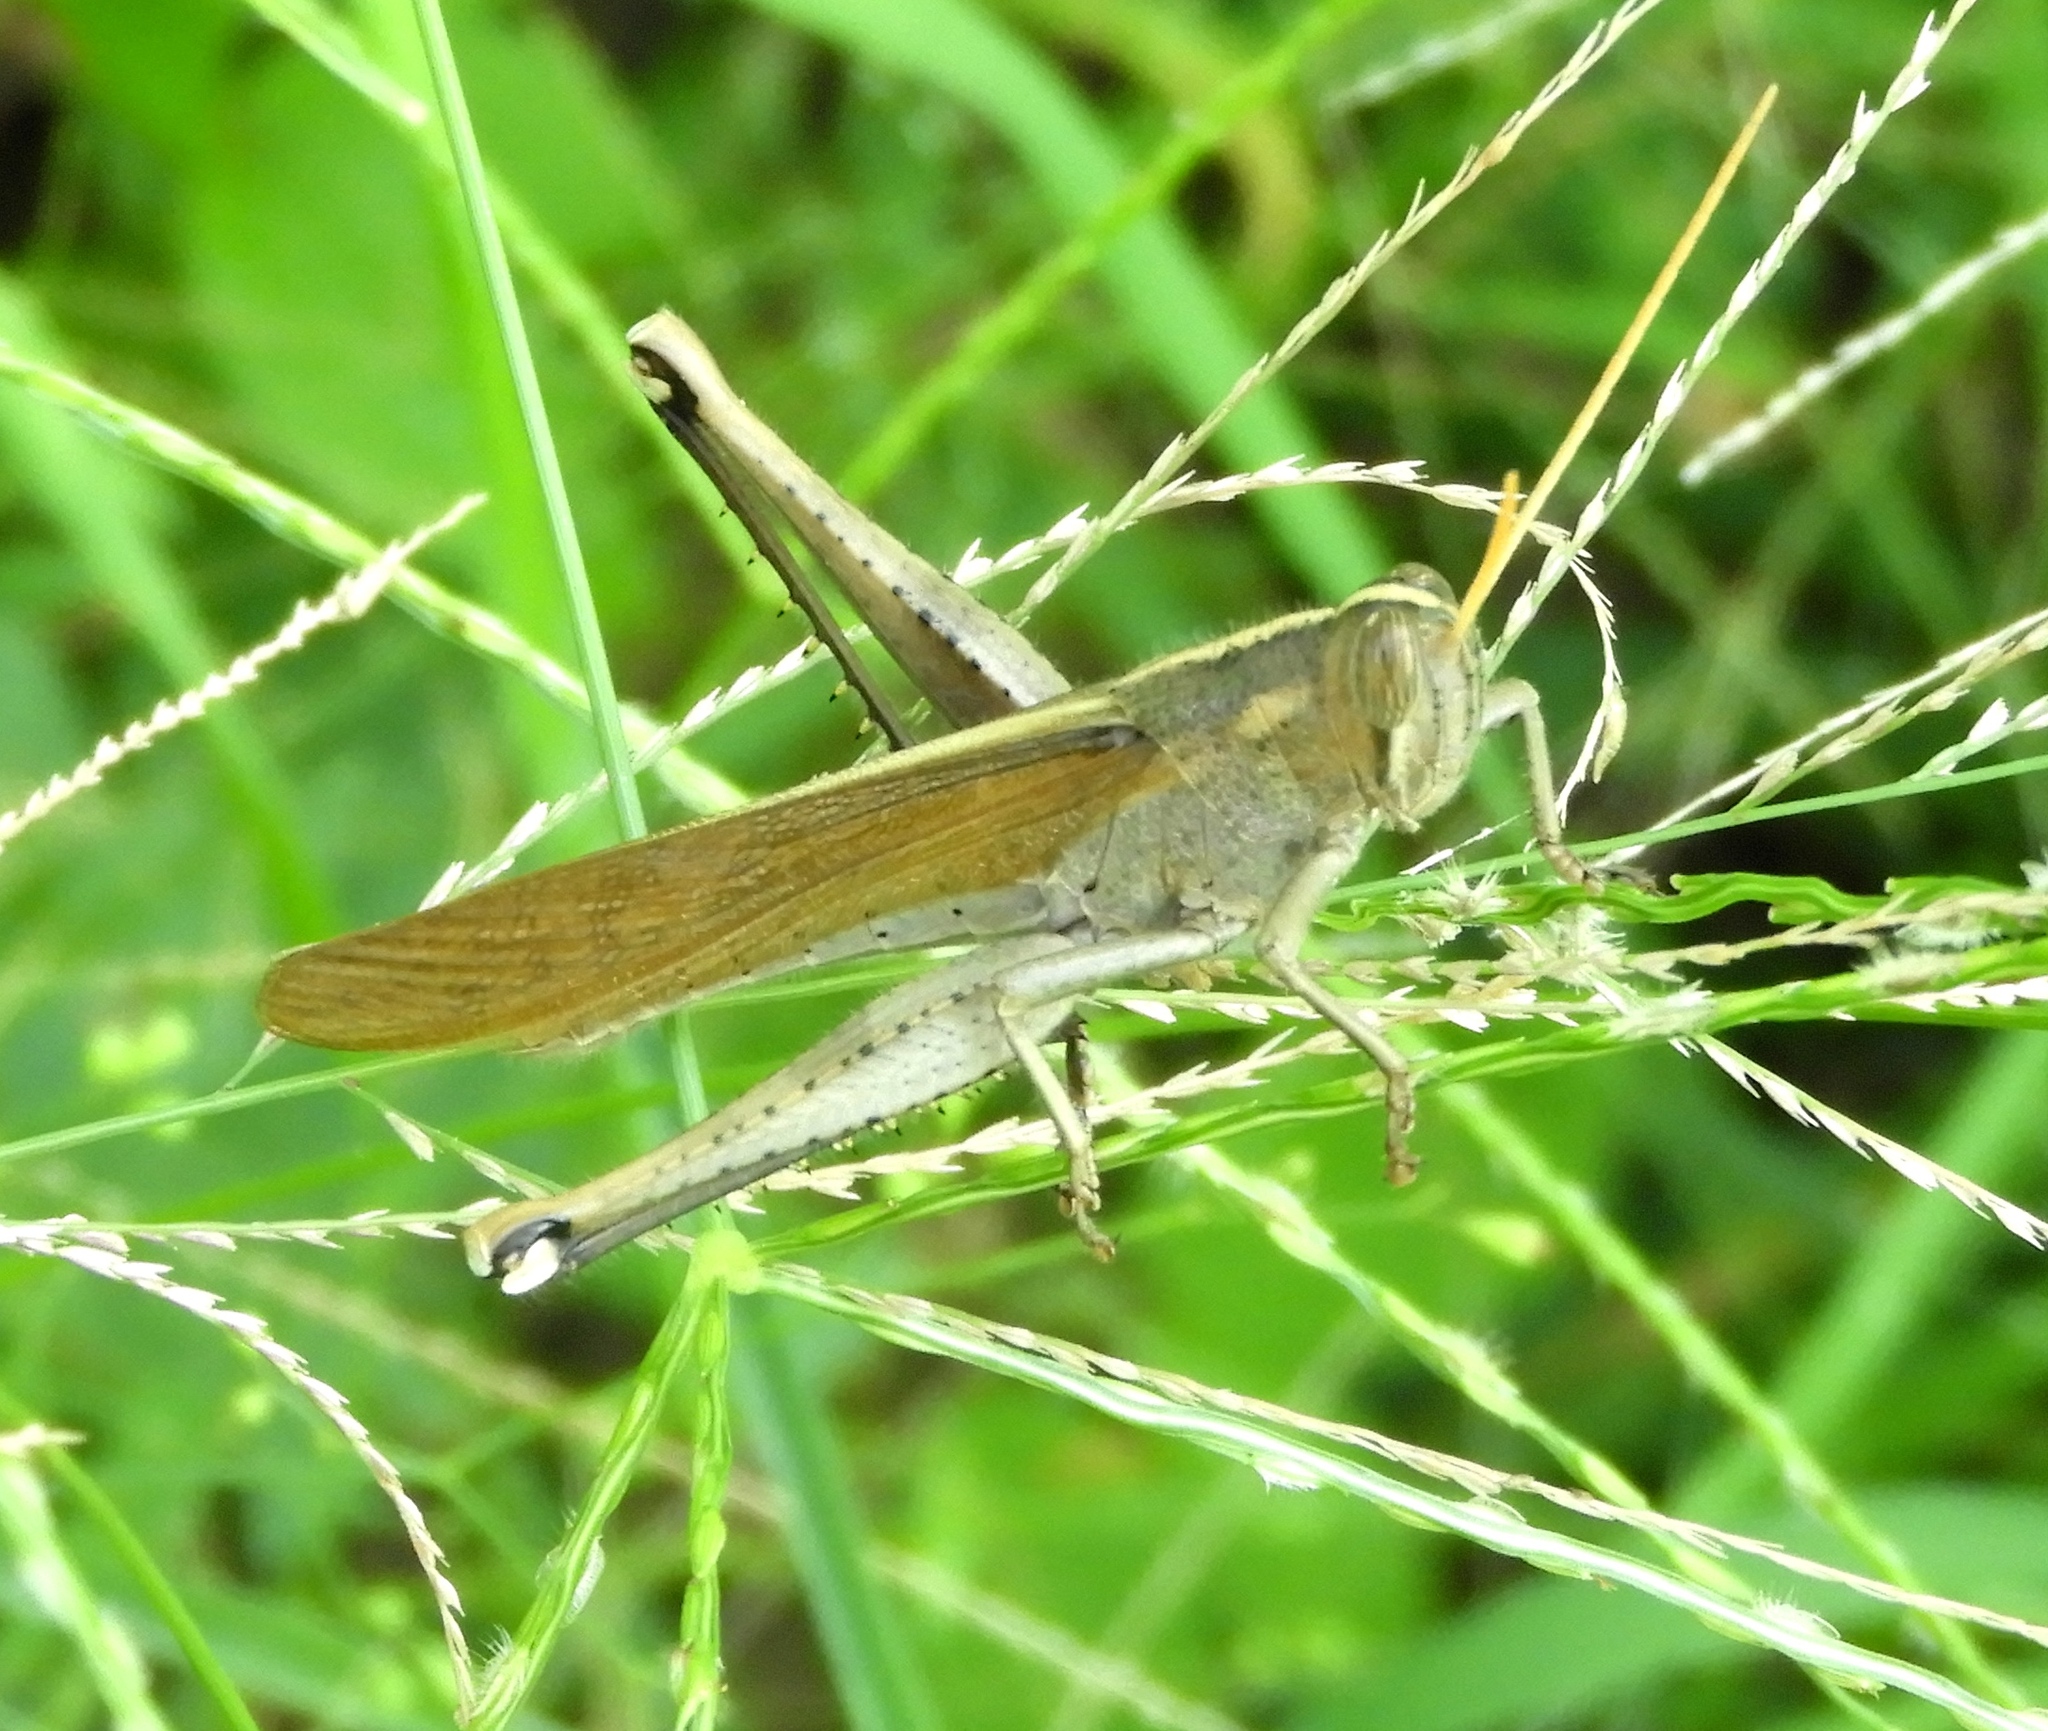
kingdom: Animalia
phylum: Arthropoda
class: Insecta
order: Orthoptera
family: Acrididae
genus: Schistocerca
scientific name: Schistocerca camerata
